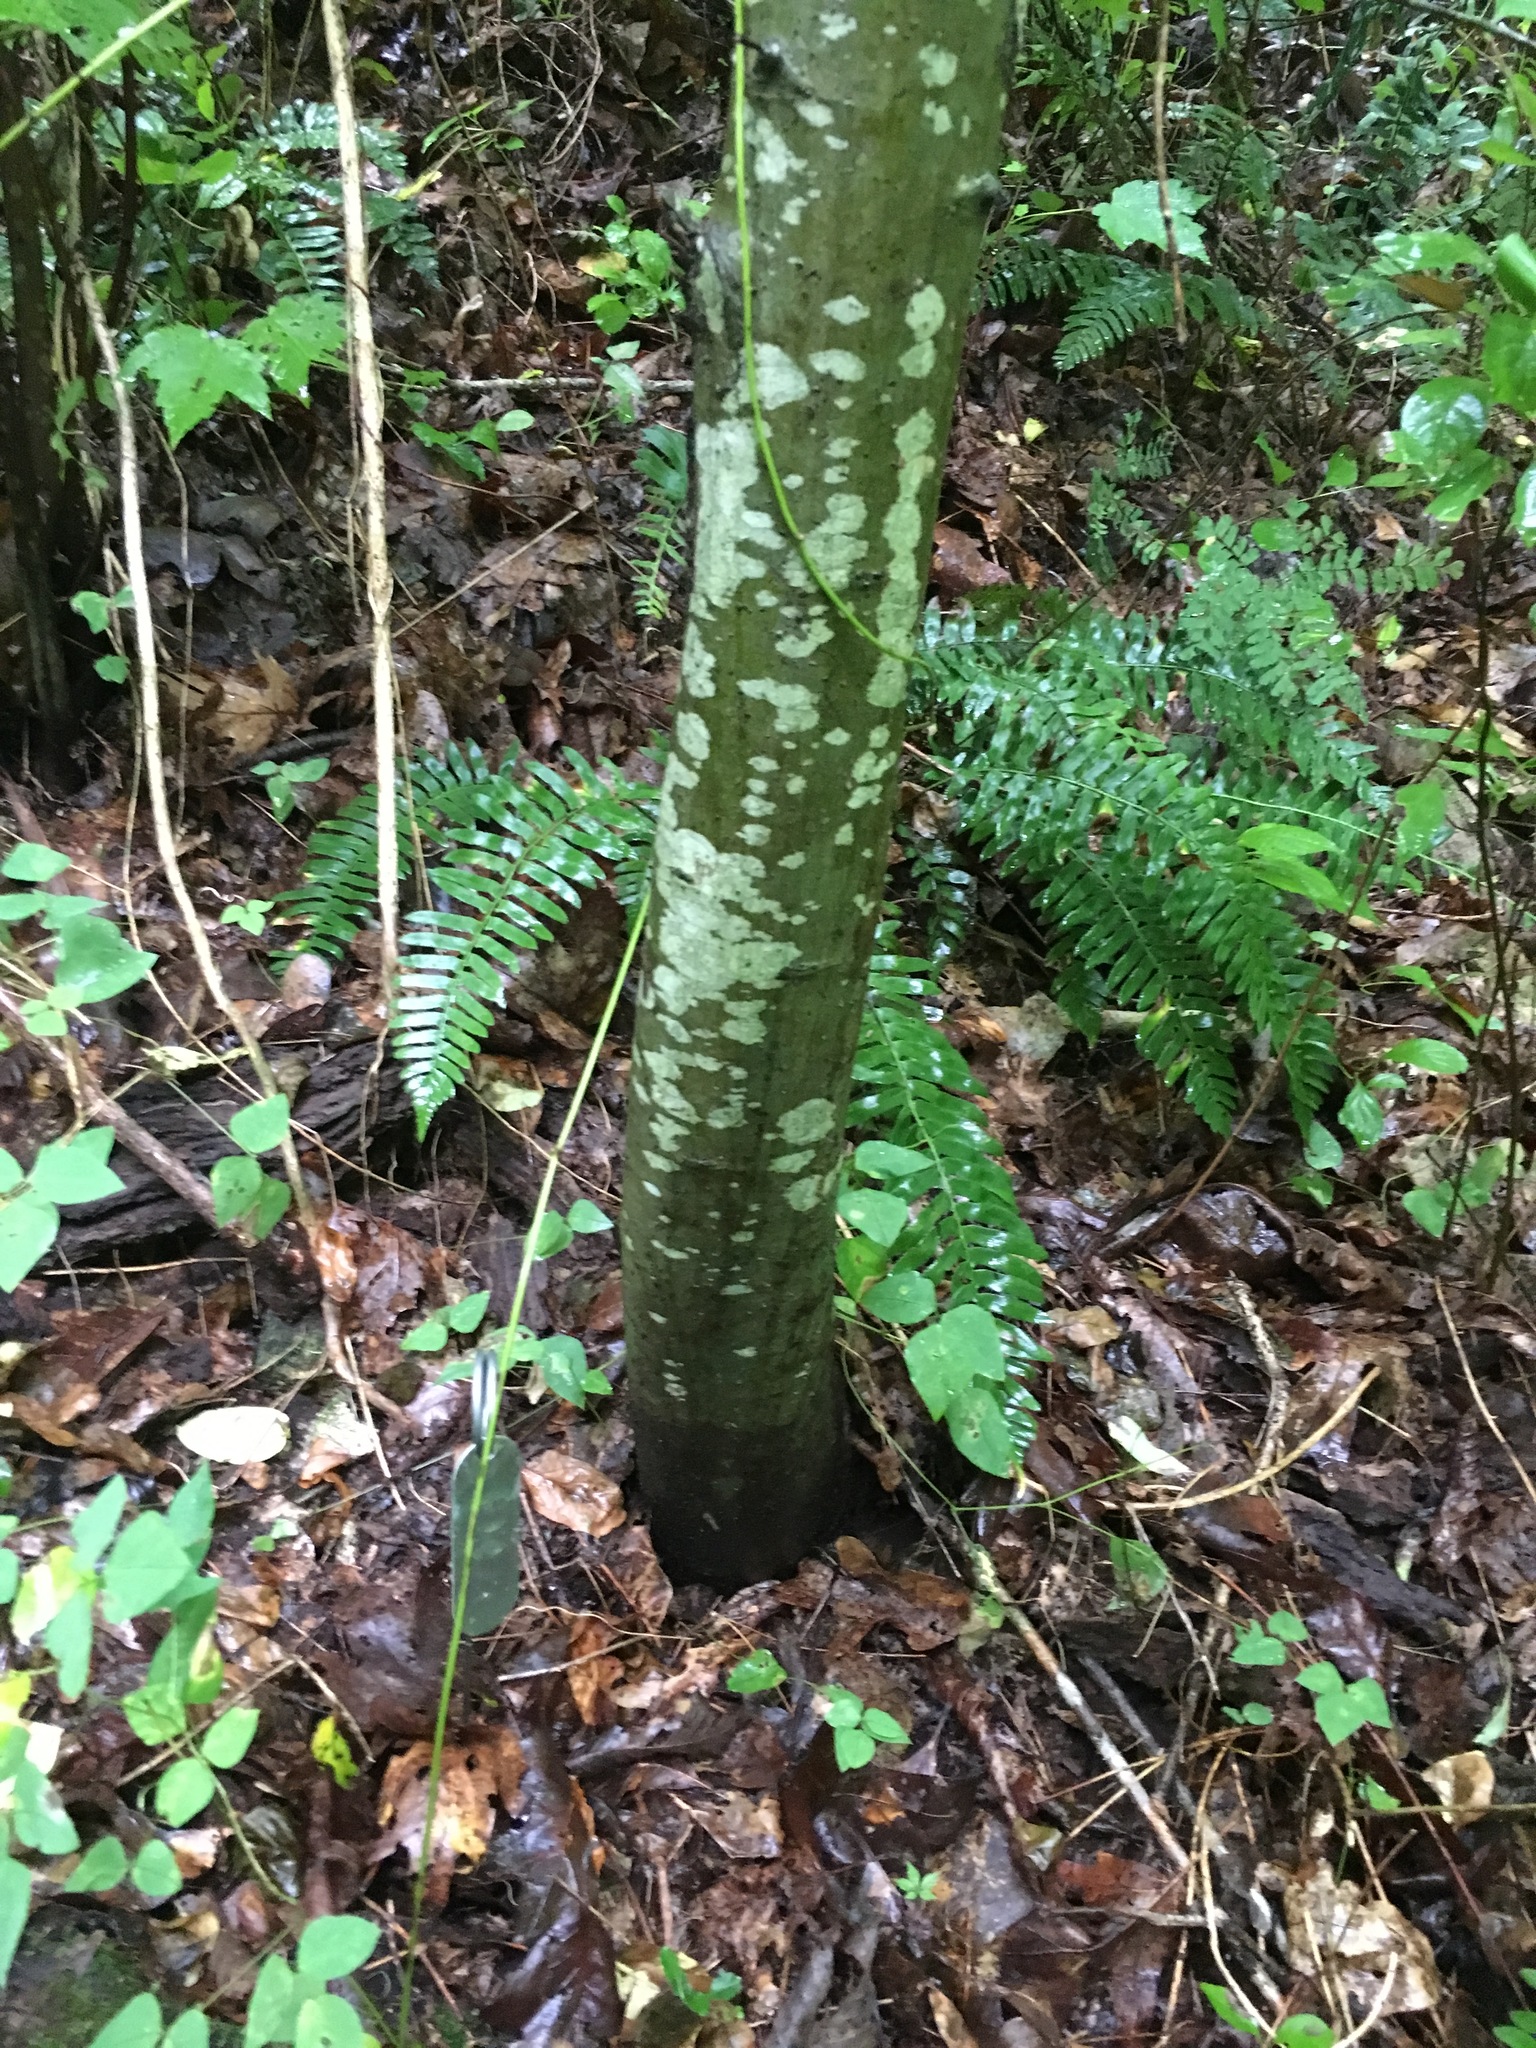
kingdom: Plantae
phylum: Tracheophyta
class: Magnoliopsida
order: Fagales
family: Fagaceae
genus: Castanea
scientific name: Castanea ozarkensis
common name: Ozark chinkapin
